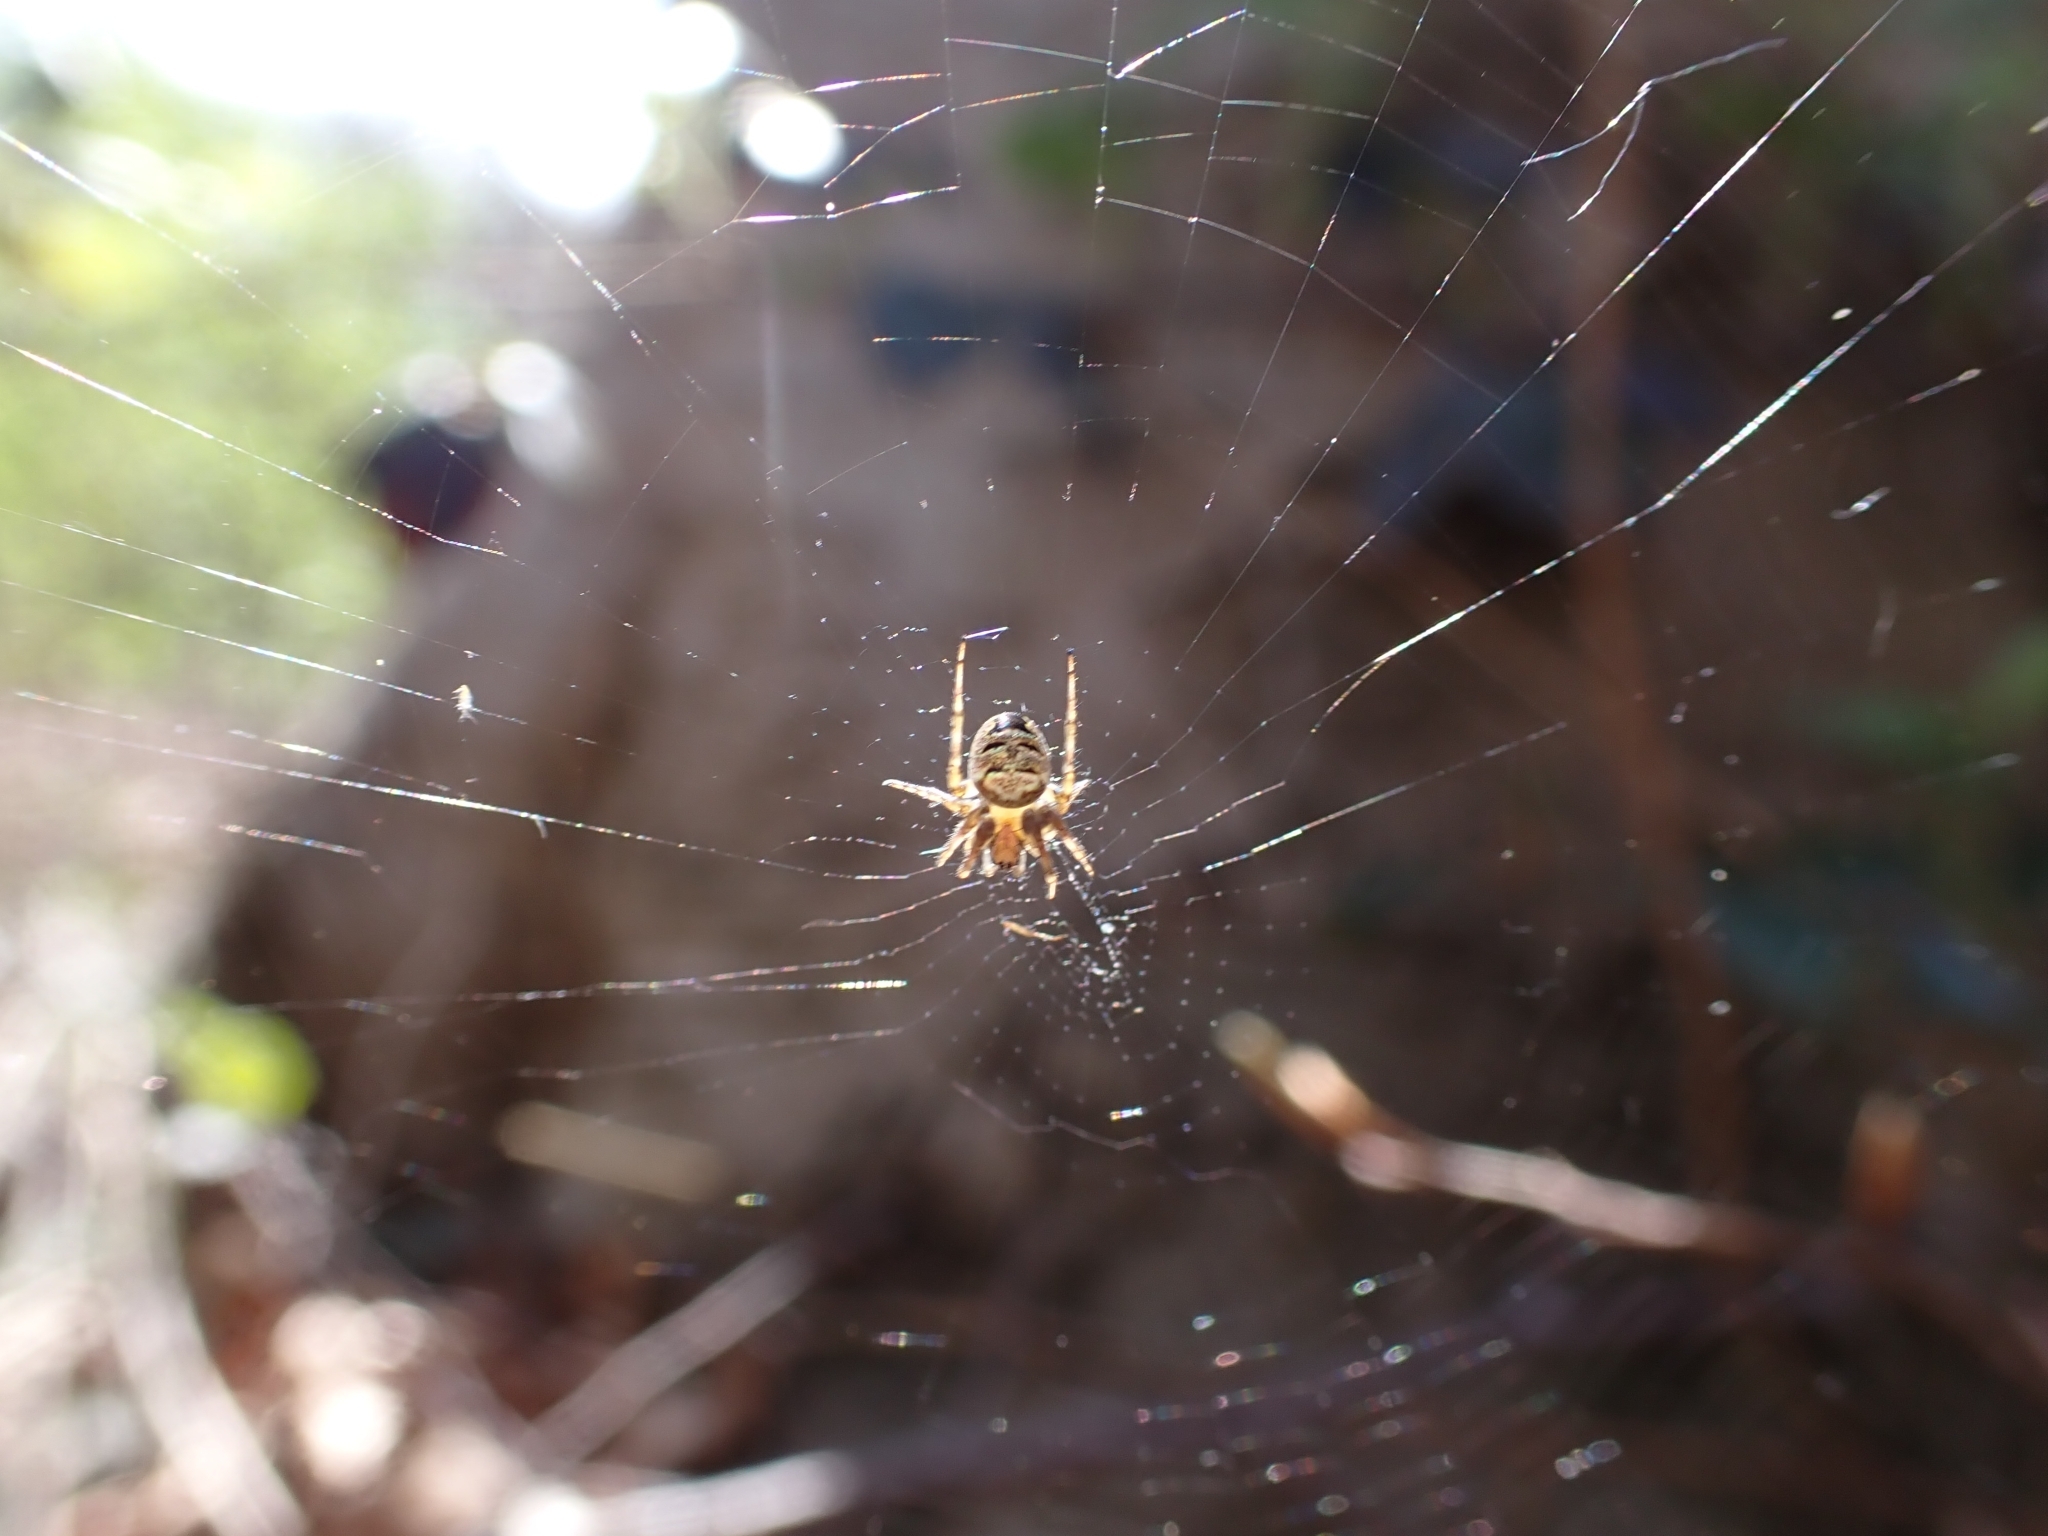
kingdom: Animalia
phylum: Arthropoda
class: Arachnida
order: Araneae
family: Araneidae
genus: Zilla
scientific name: Zilla diodia
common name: Zilla diodia
